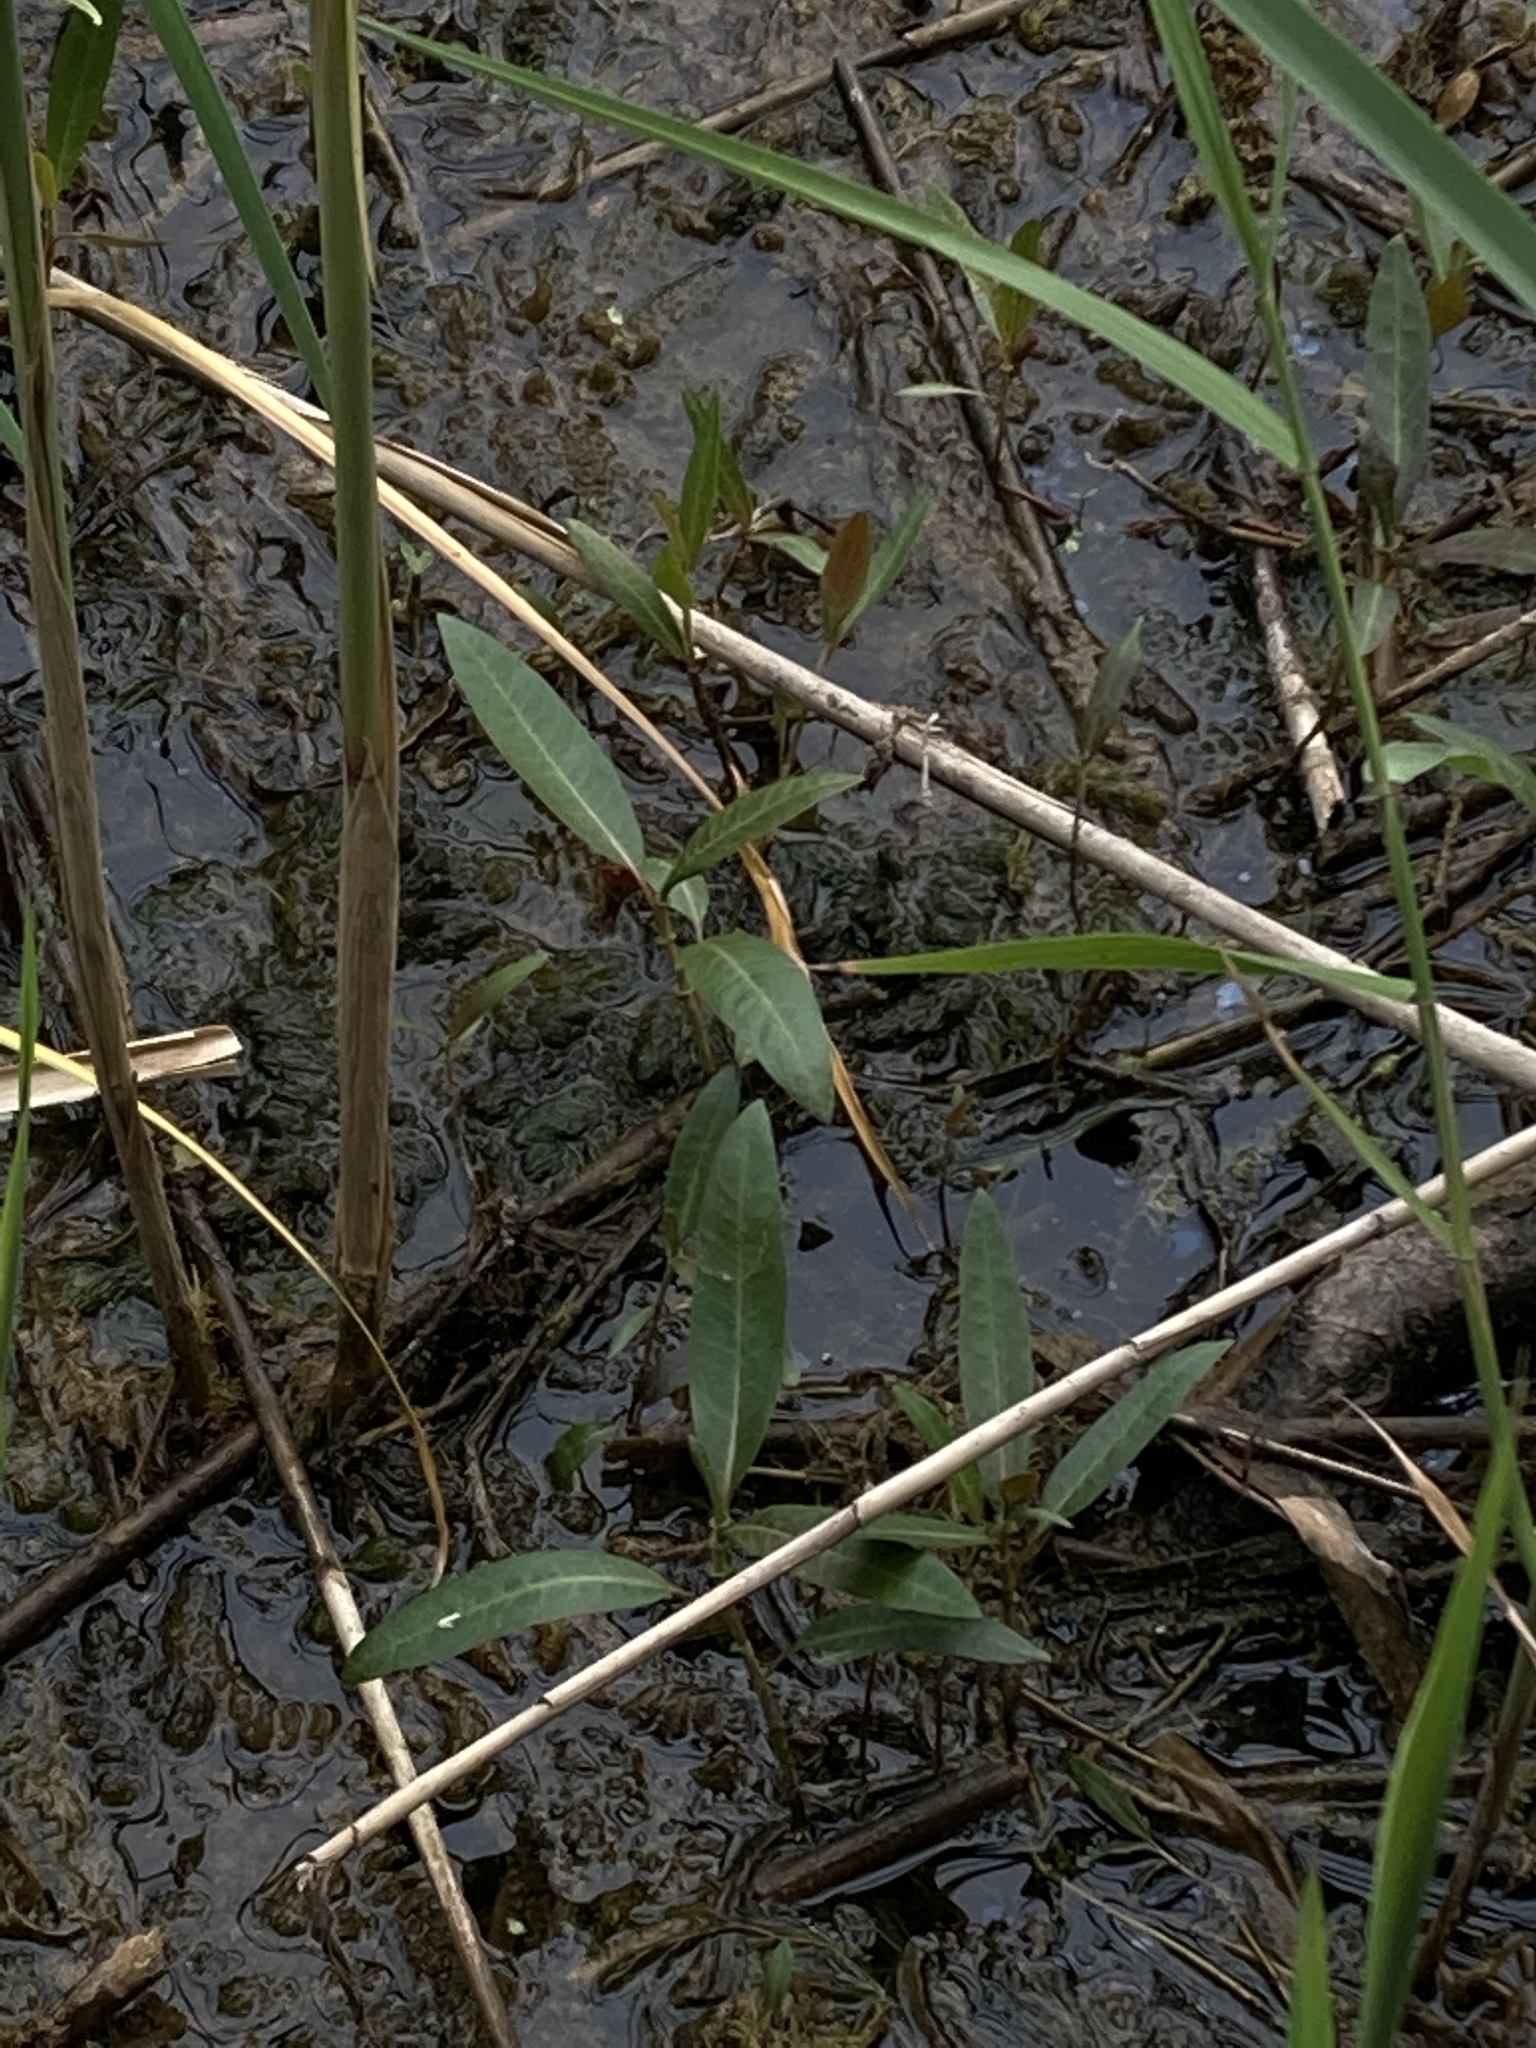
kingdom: Plantae
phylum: Tracheophyta
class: Magnoliopsida
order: Caryophyllales
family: Polygonaceae
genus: Persicaria
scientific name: Persicaria amphibia
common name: Amphibious bistort
